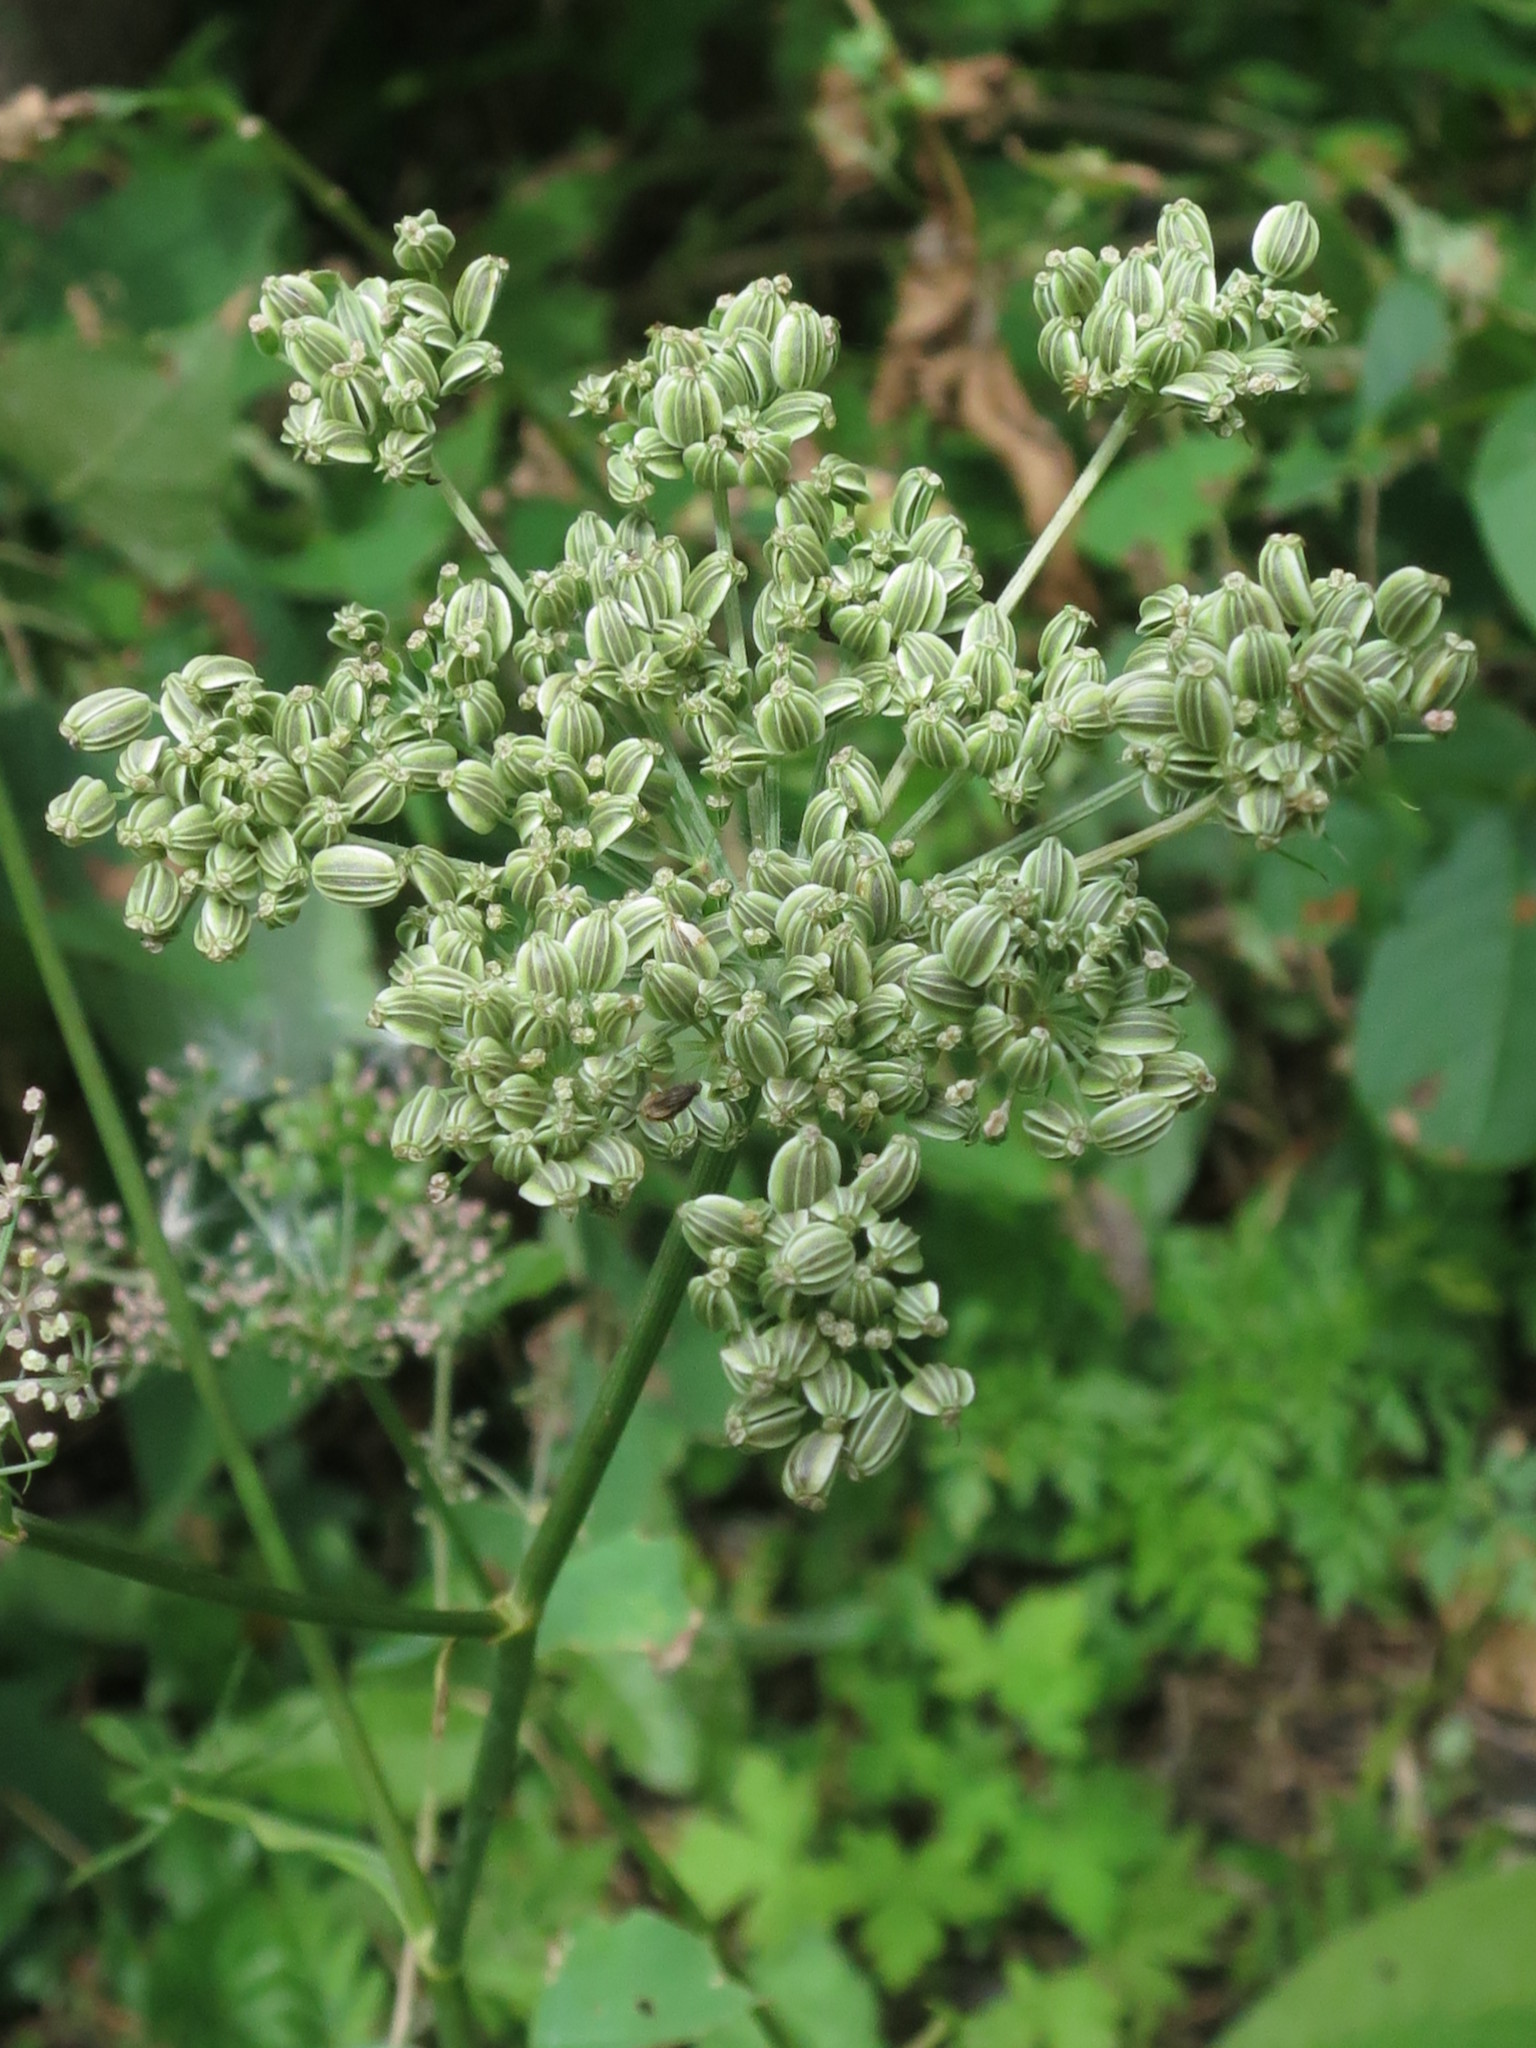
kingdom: Plantae
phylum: Tracheophyta
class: Magnoliopsida
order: Apiales
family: Apiaceae
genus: Angelica
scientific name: Angelica czernaevia
